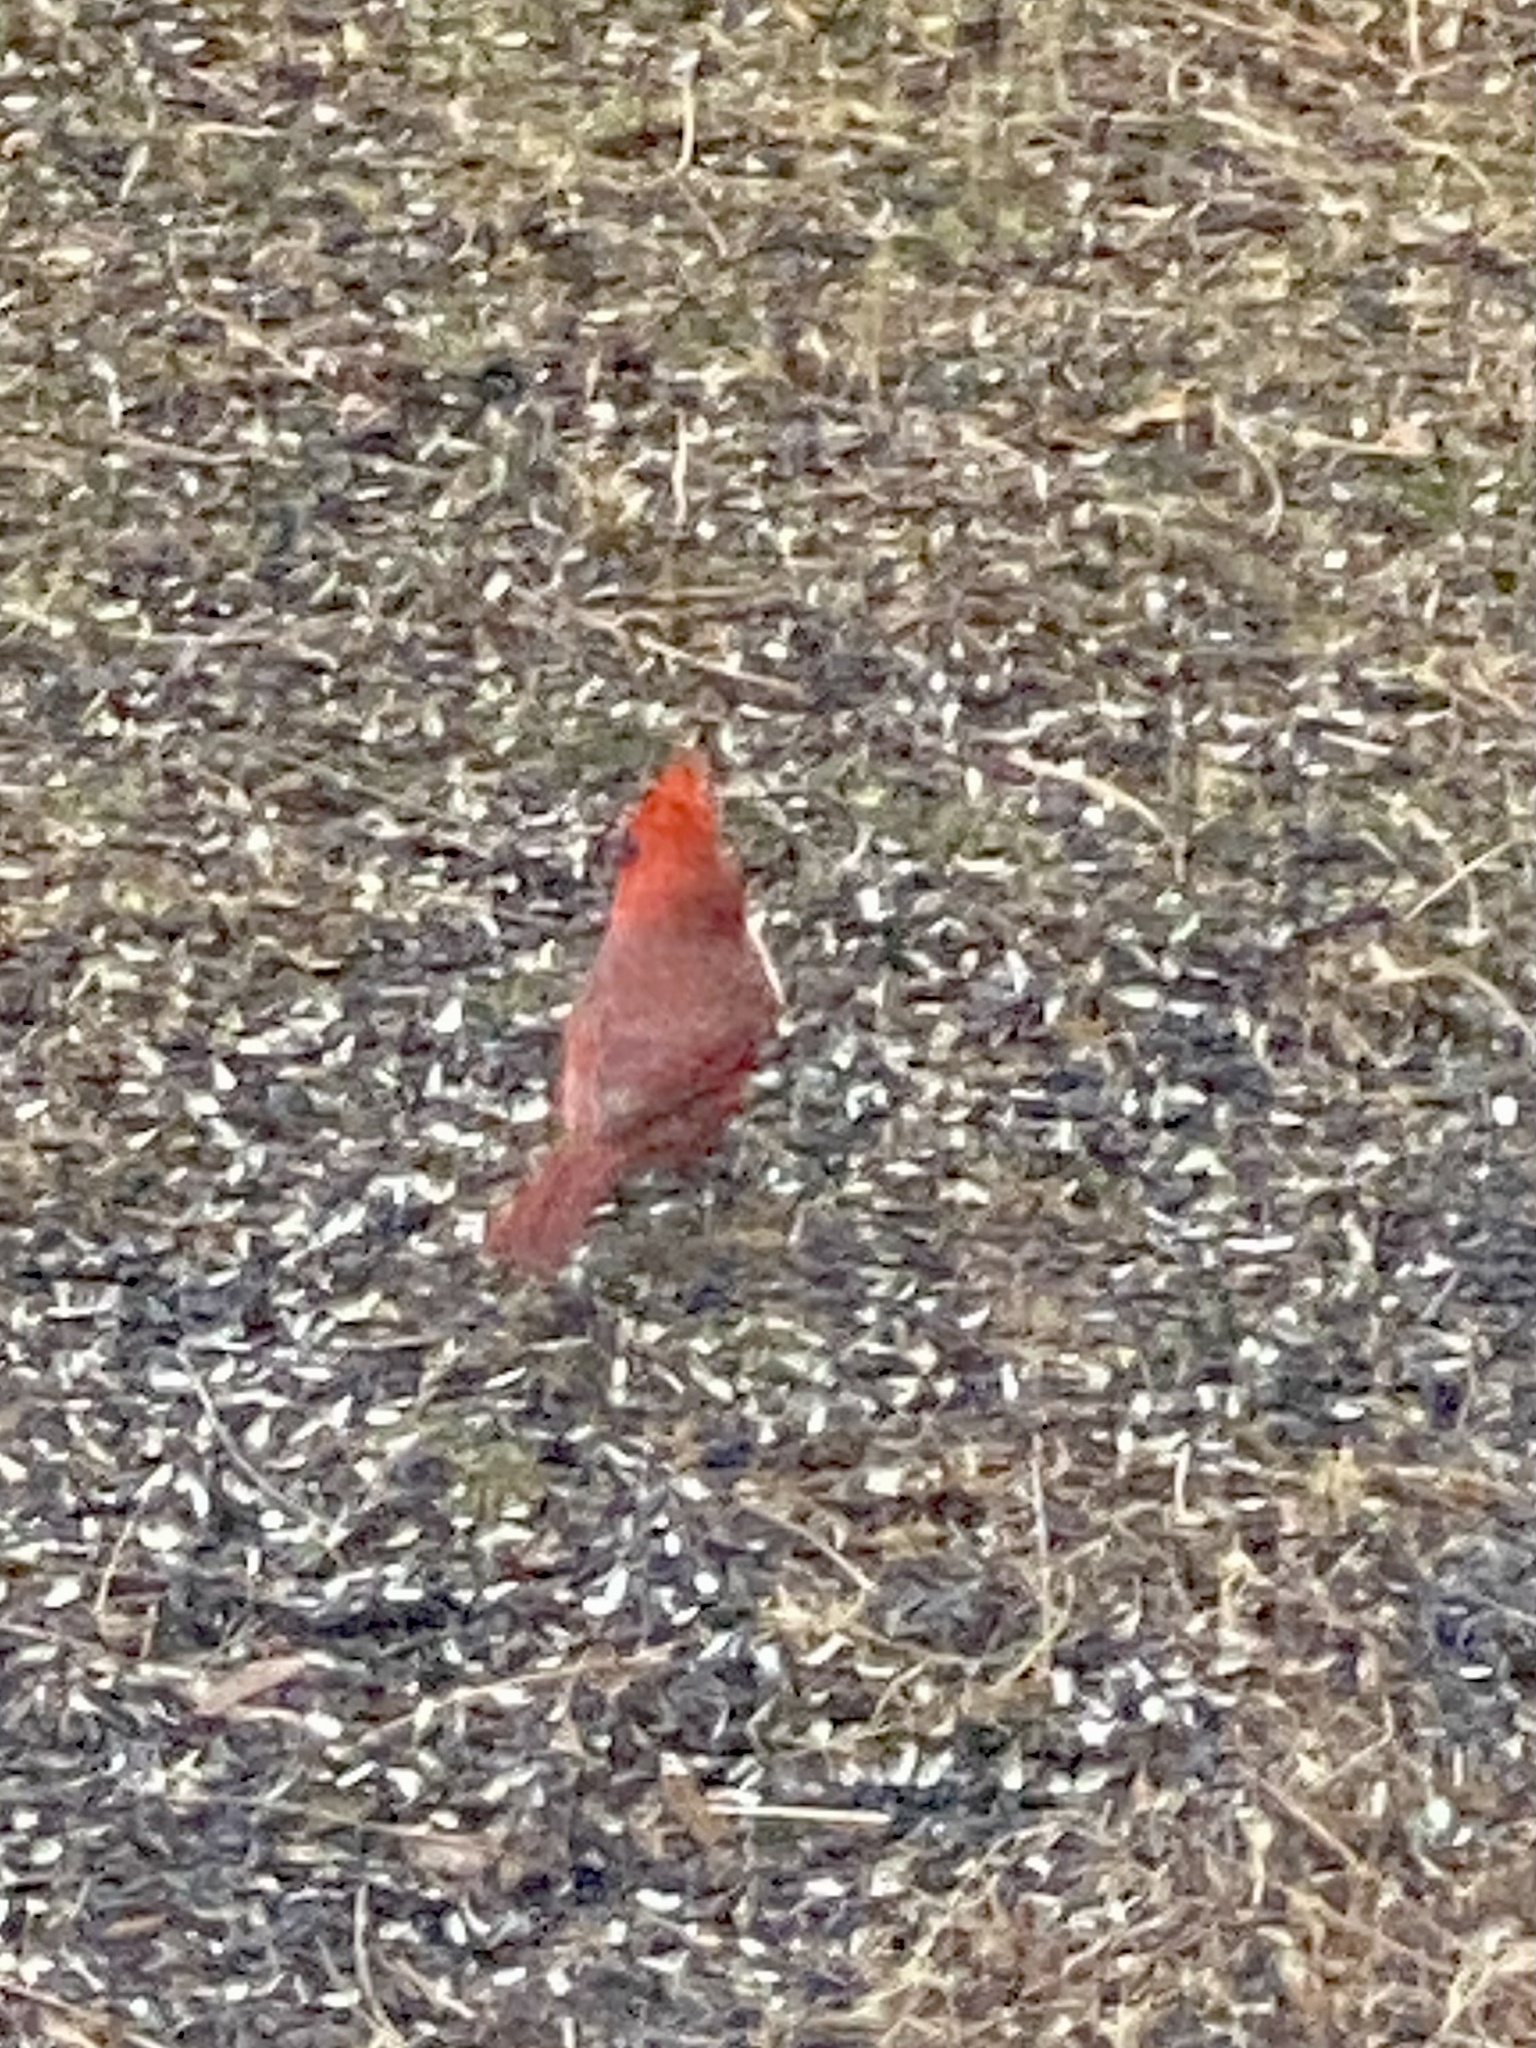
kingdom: Animalia
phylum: Chordata
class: Aves
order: Passeriformes
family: Cardinalidae
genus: Cardinalis
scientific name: Cardinalis cardinalis
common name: Northern cardinal
